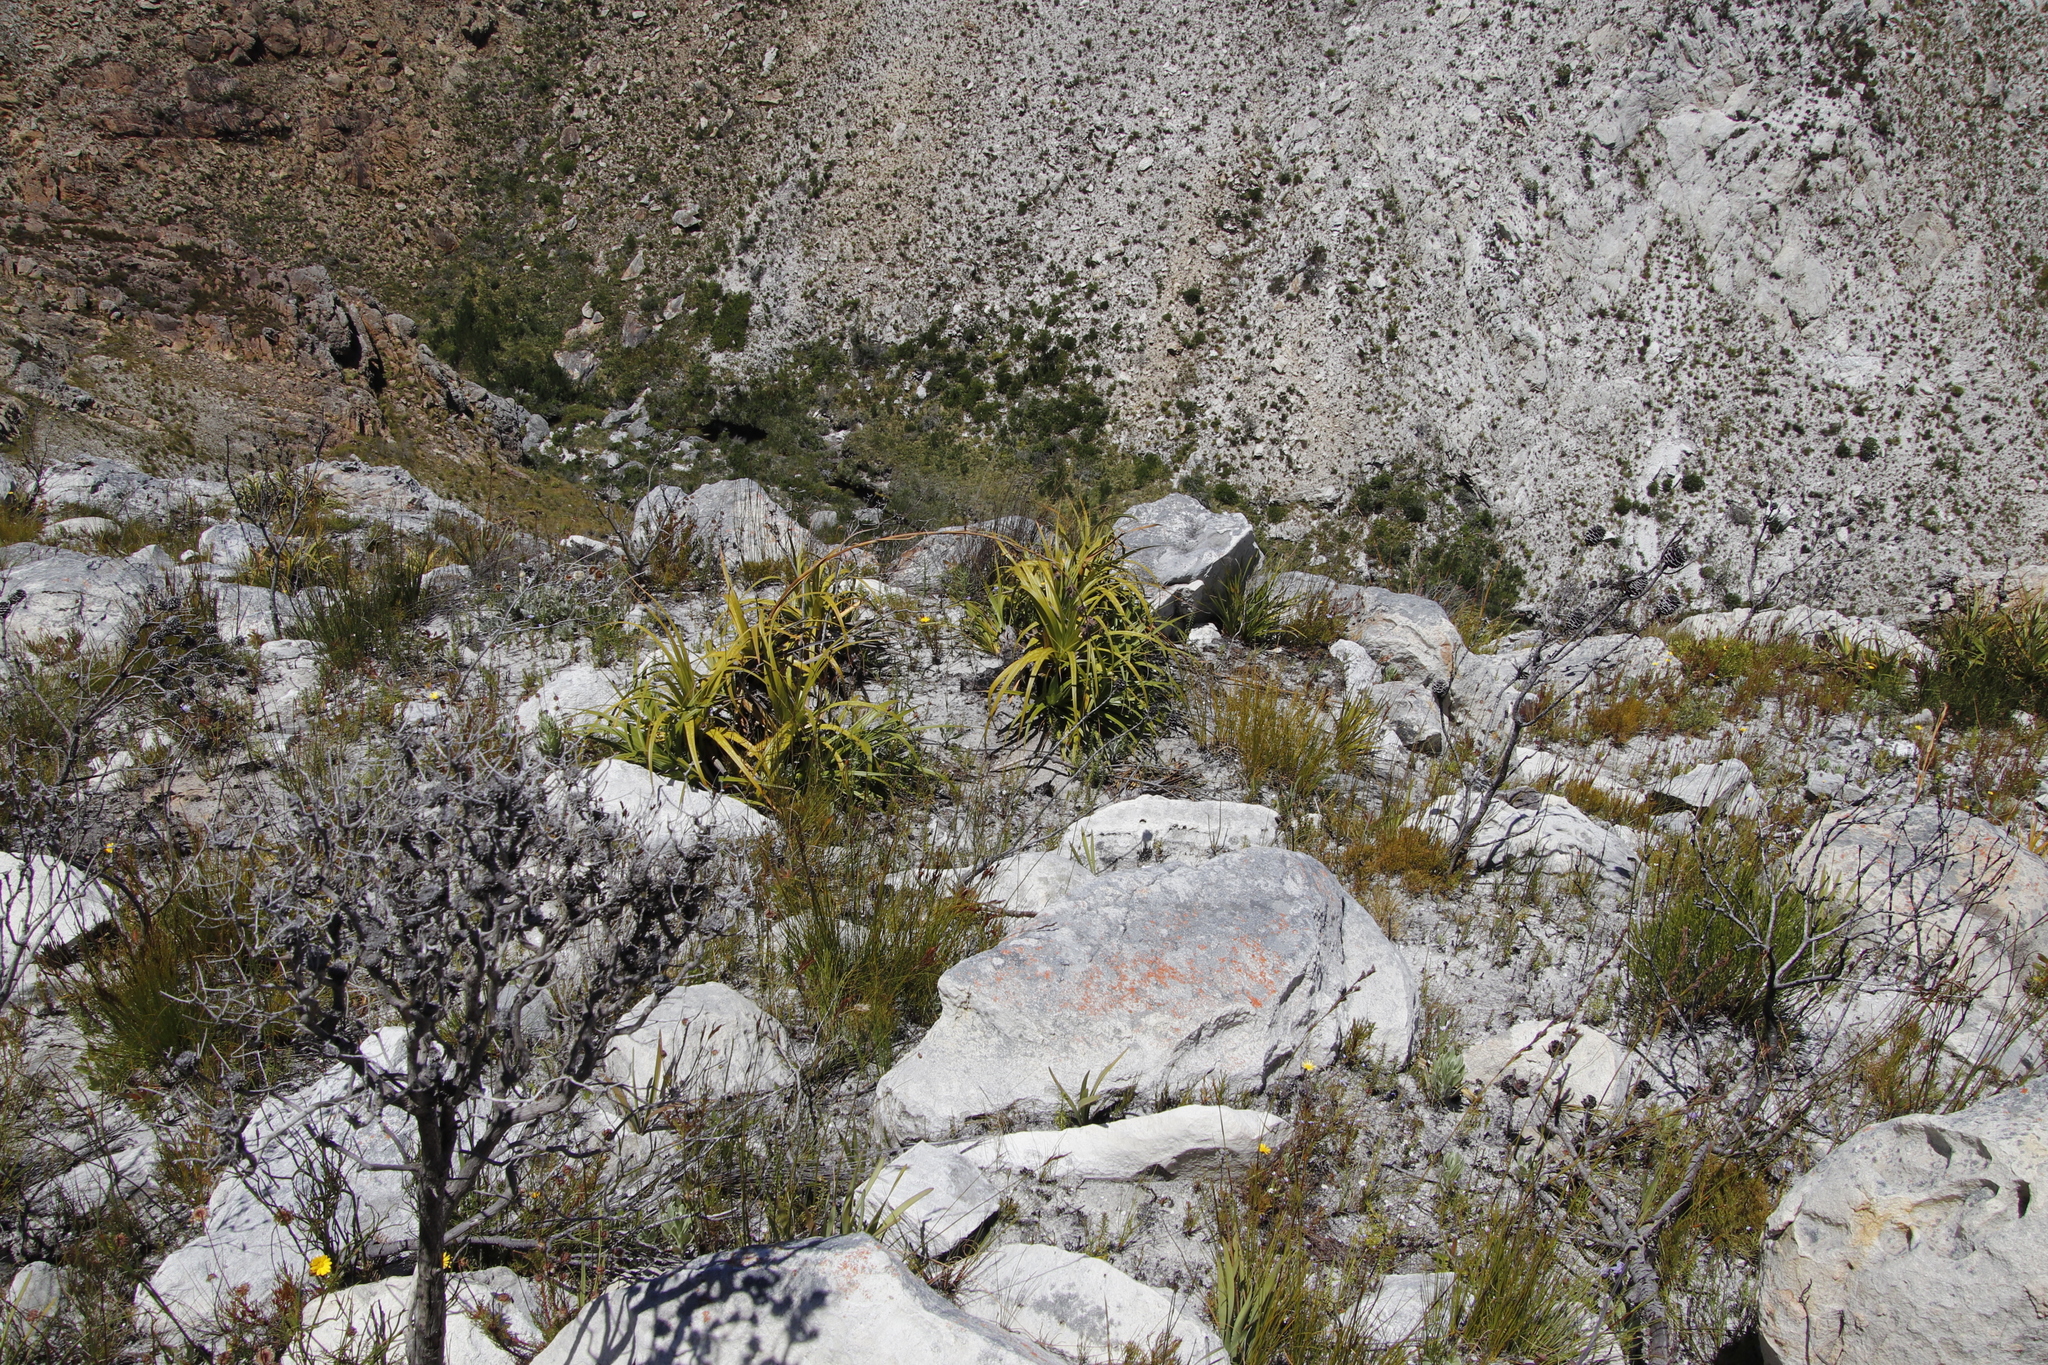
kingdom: Plantae
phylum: Tracheophyta
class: Liliopsida
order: Poales
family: Cyperaceae
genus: Tetraria
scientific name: Tetraria thermalis
